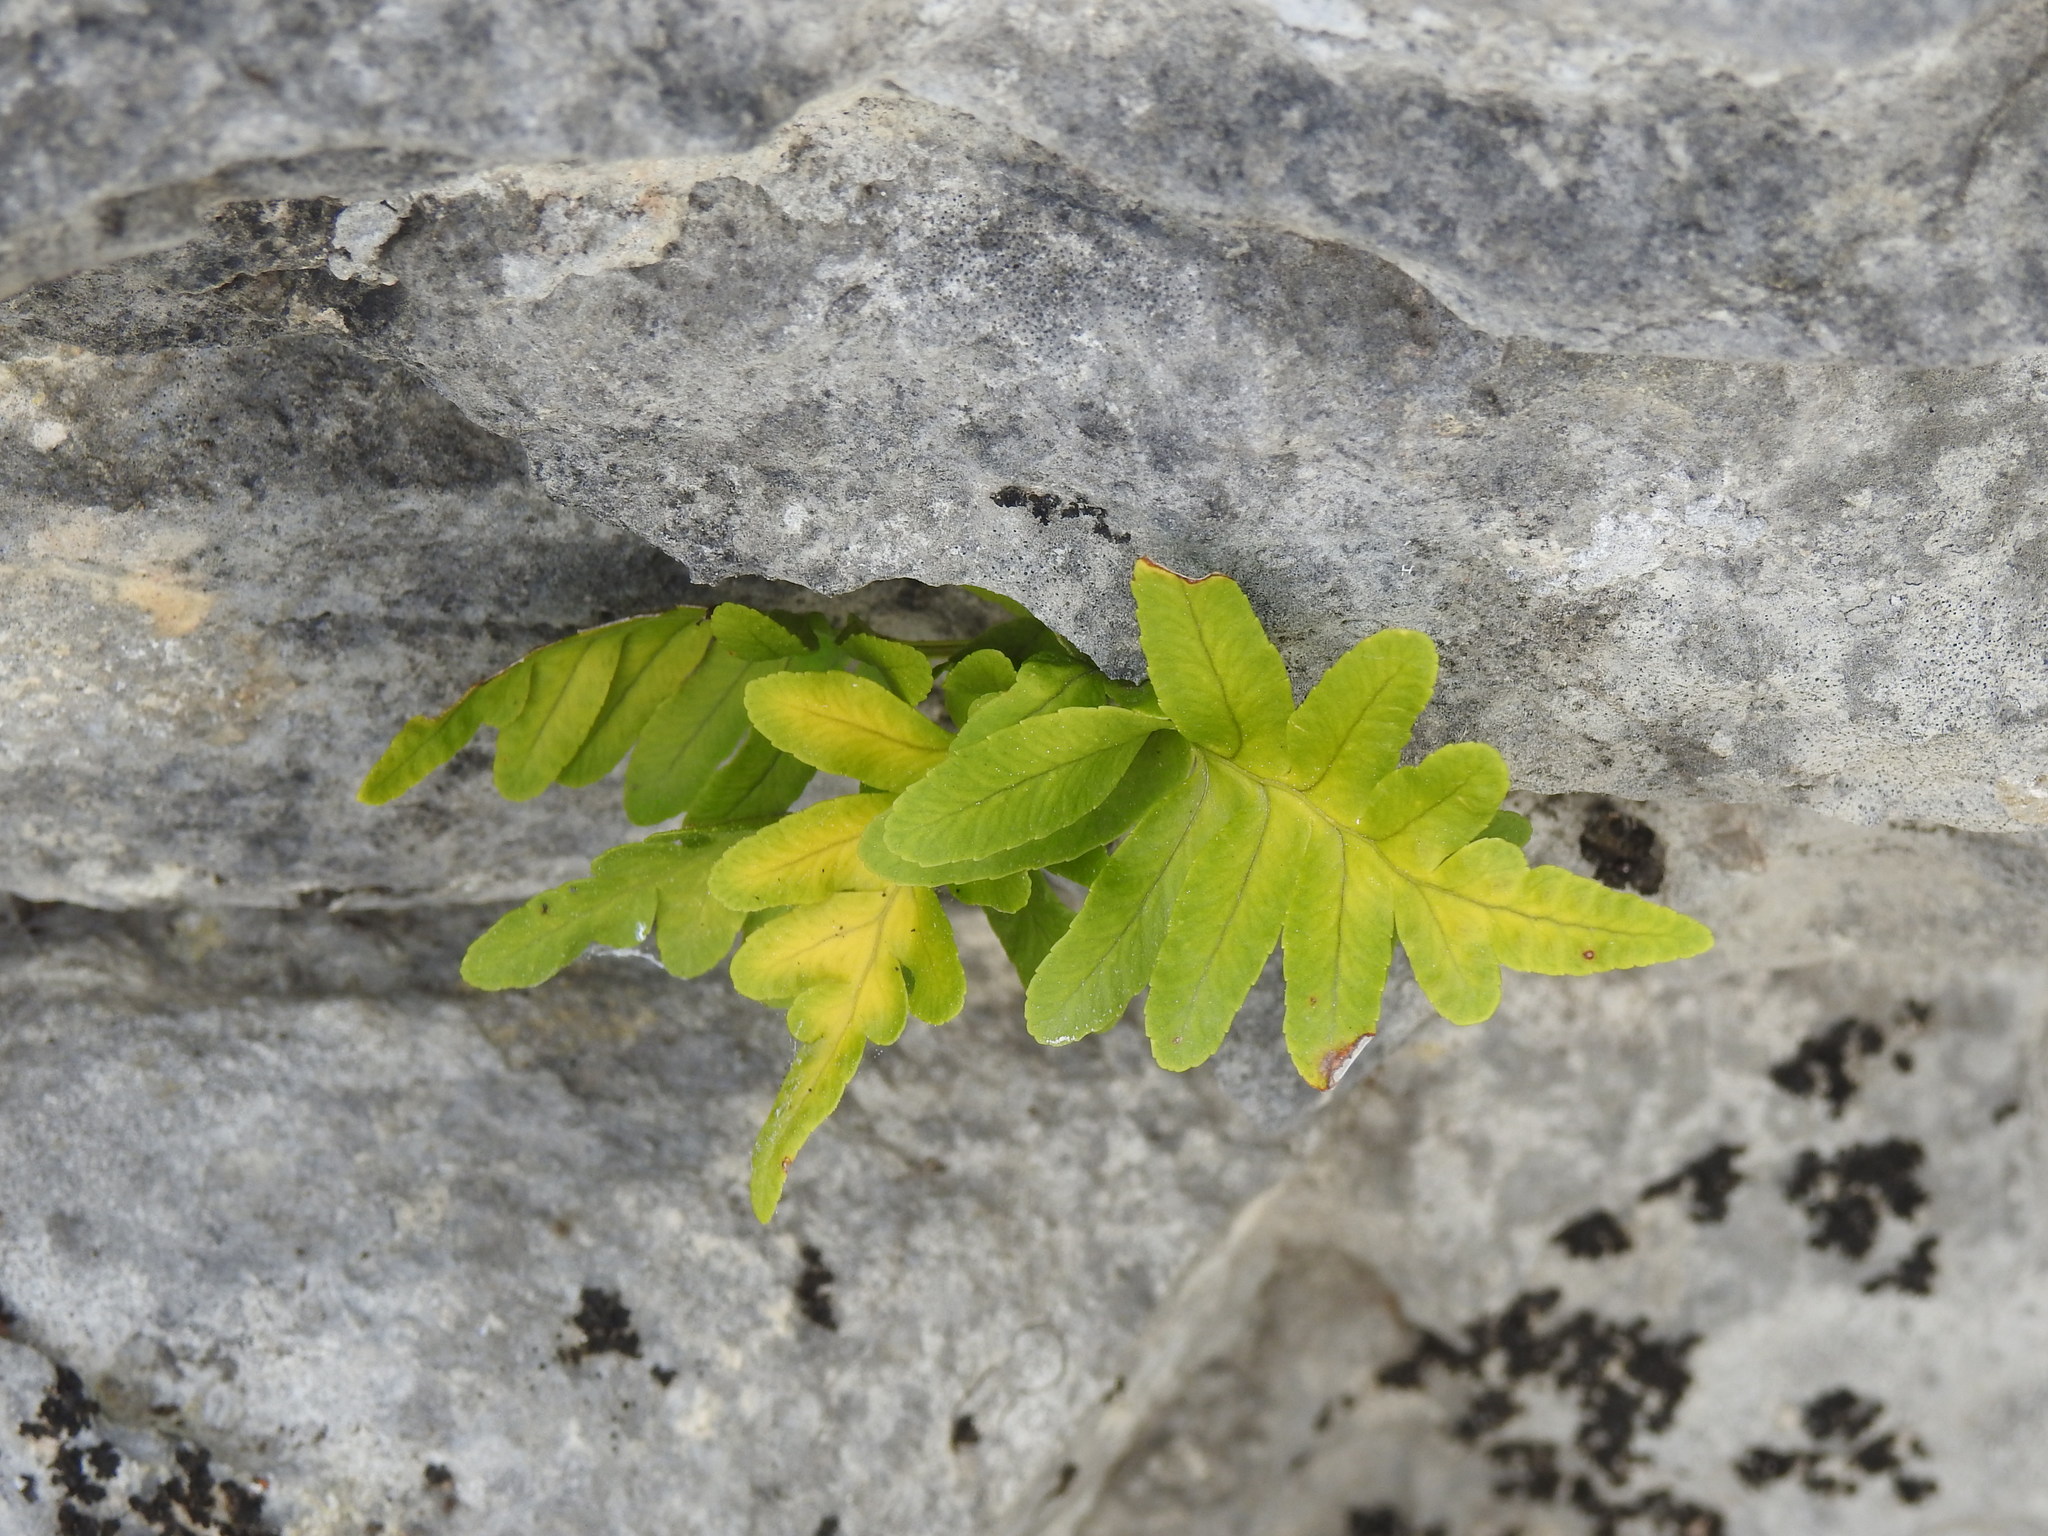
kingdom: Plantae
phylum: Tracheophyta
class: Polypodiopsida
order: Polypodiales
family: Polypodiaceae
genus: Polypodium
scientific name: Polypodium cambricum
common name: Southern polypody
